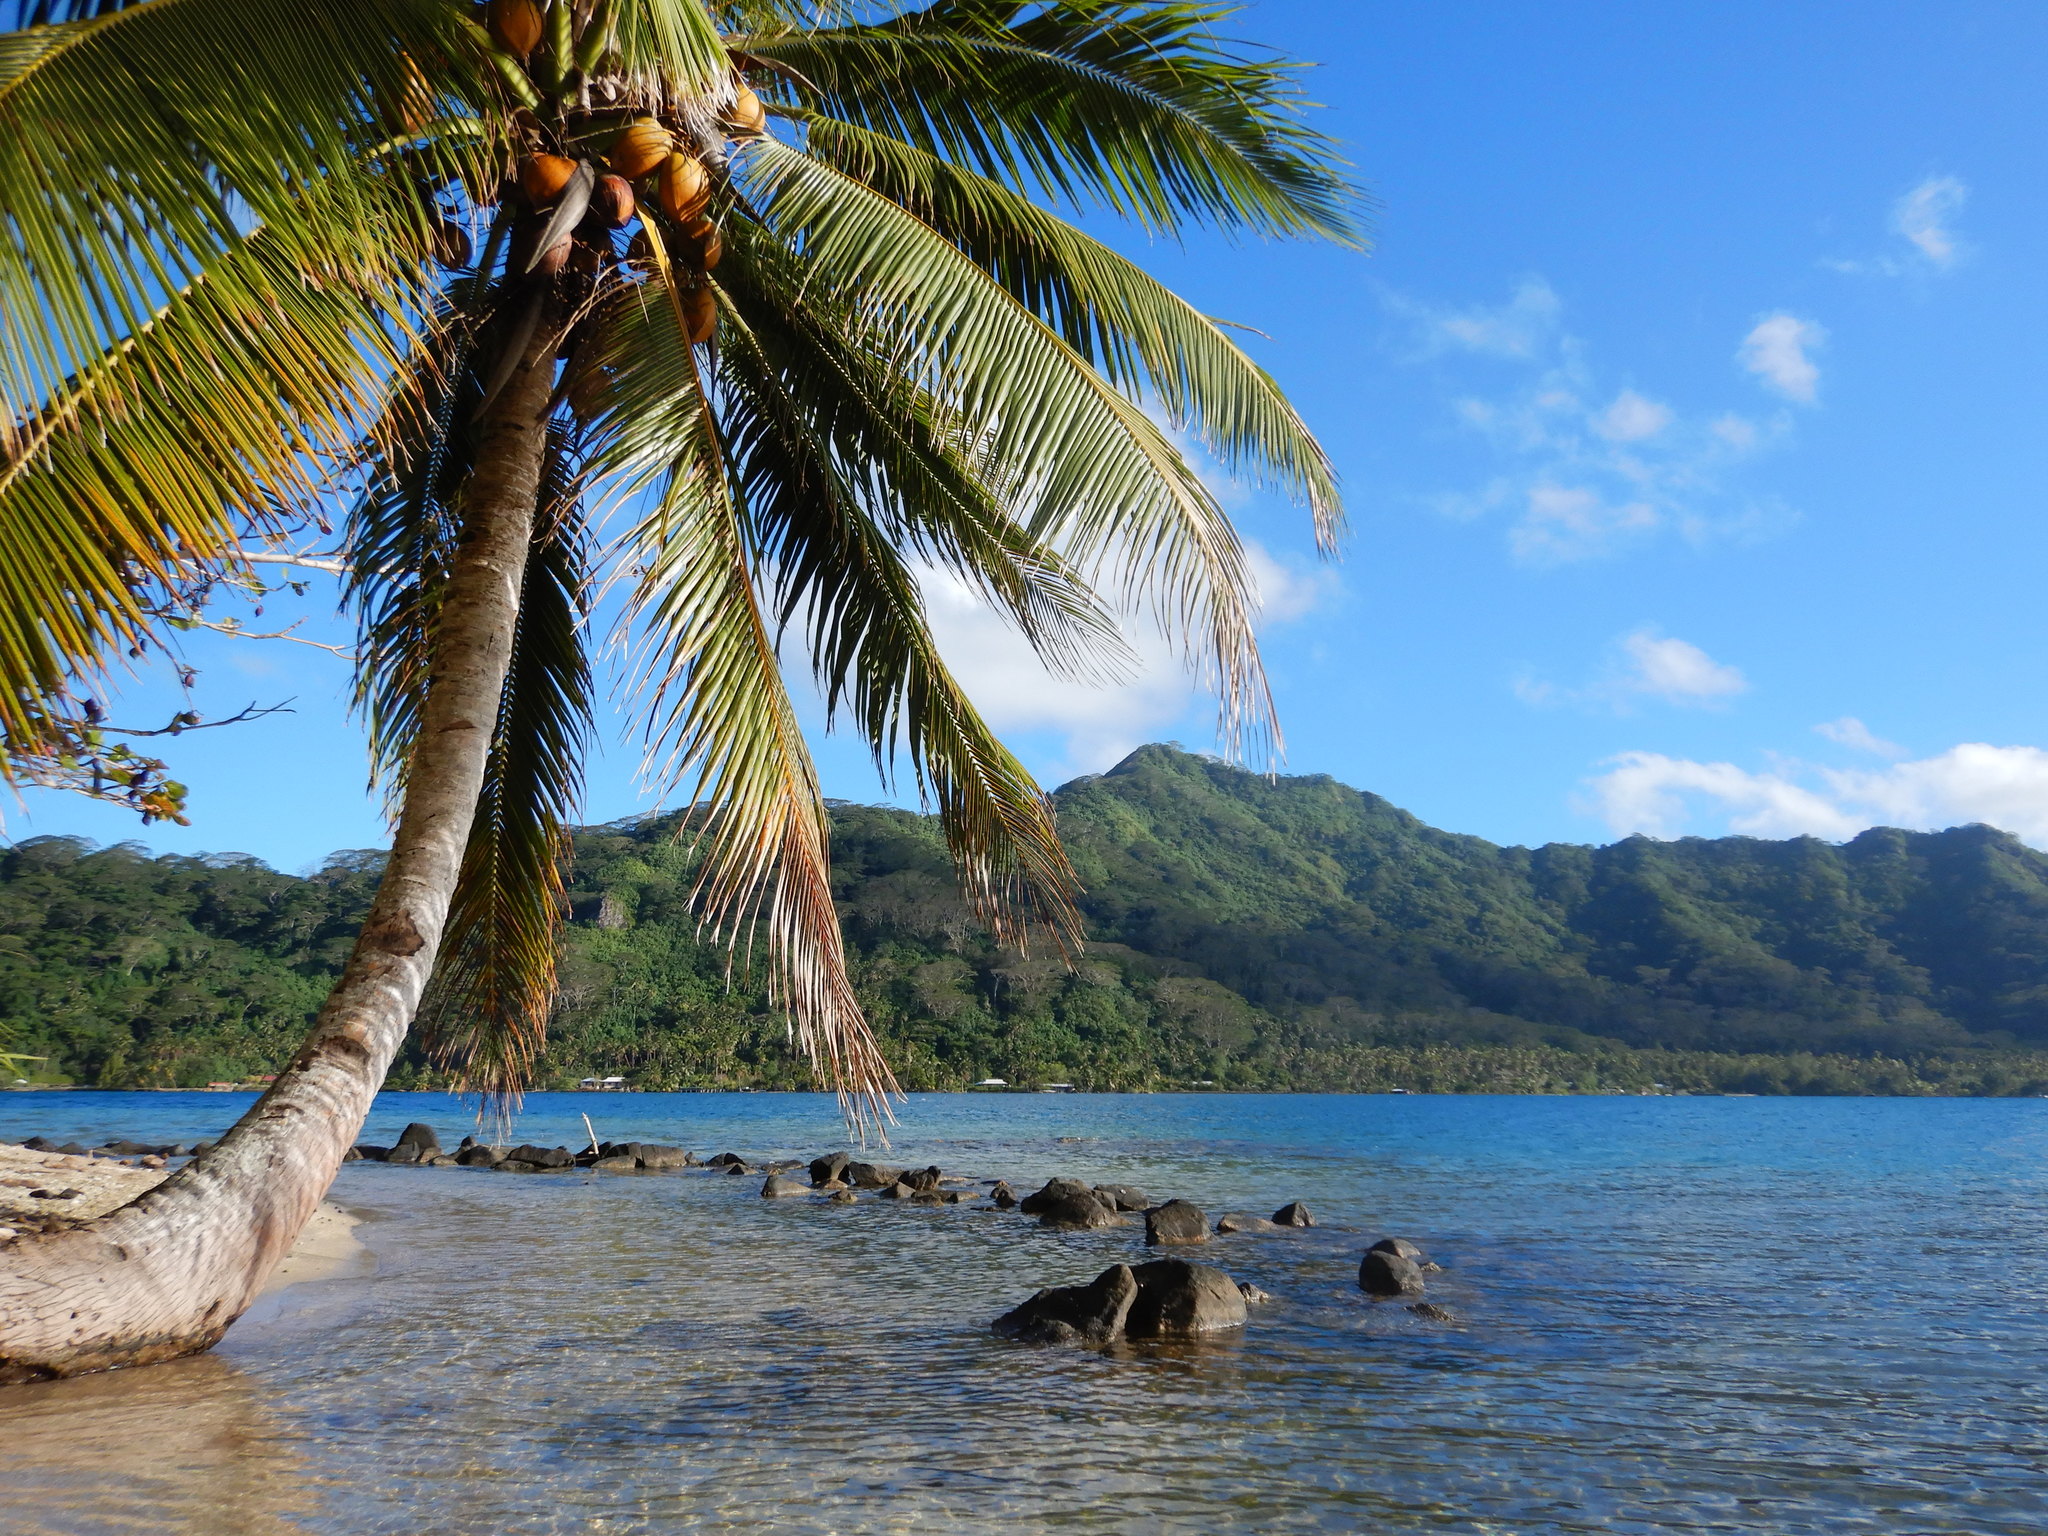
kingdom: Plantae
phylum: Tracheophyta
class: Liliopsida
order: Arecales
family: Arecaceae
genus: Cocos
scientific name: Cocos nucifera
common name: Coconut palm
